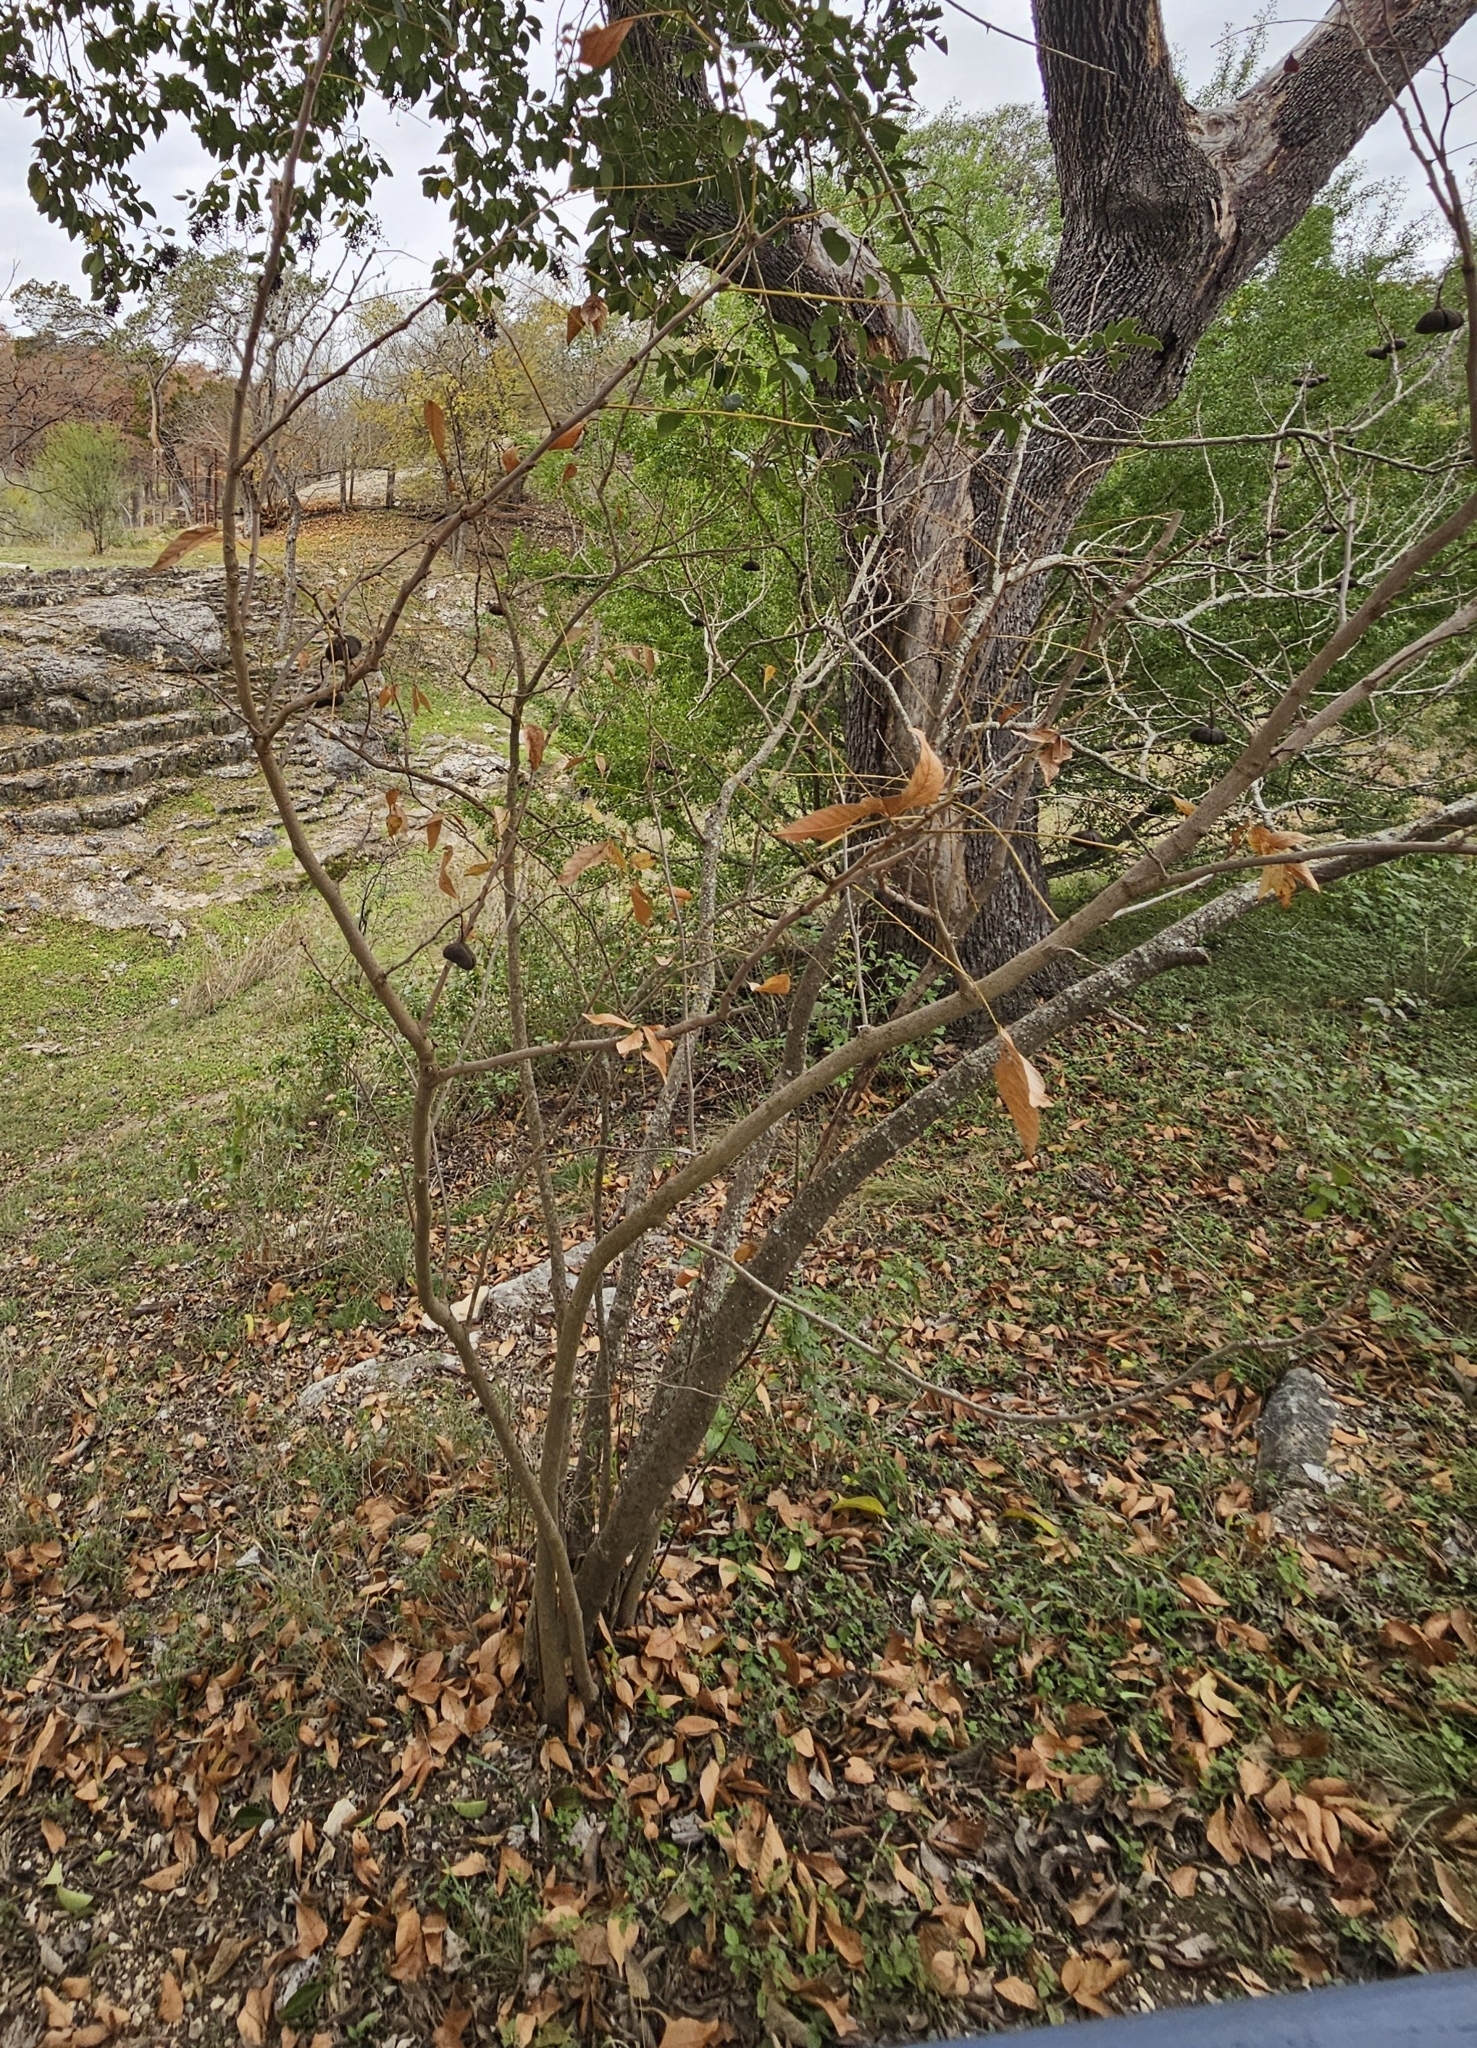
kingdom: Plantae
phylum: Tracheophyta
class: Magnoliopsida
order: Sapindales
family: Sapindaceae
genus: Ungnadia
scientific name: Ungnadia speciosa
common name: Texas-buckeye
